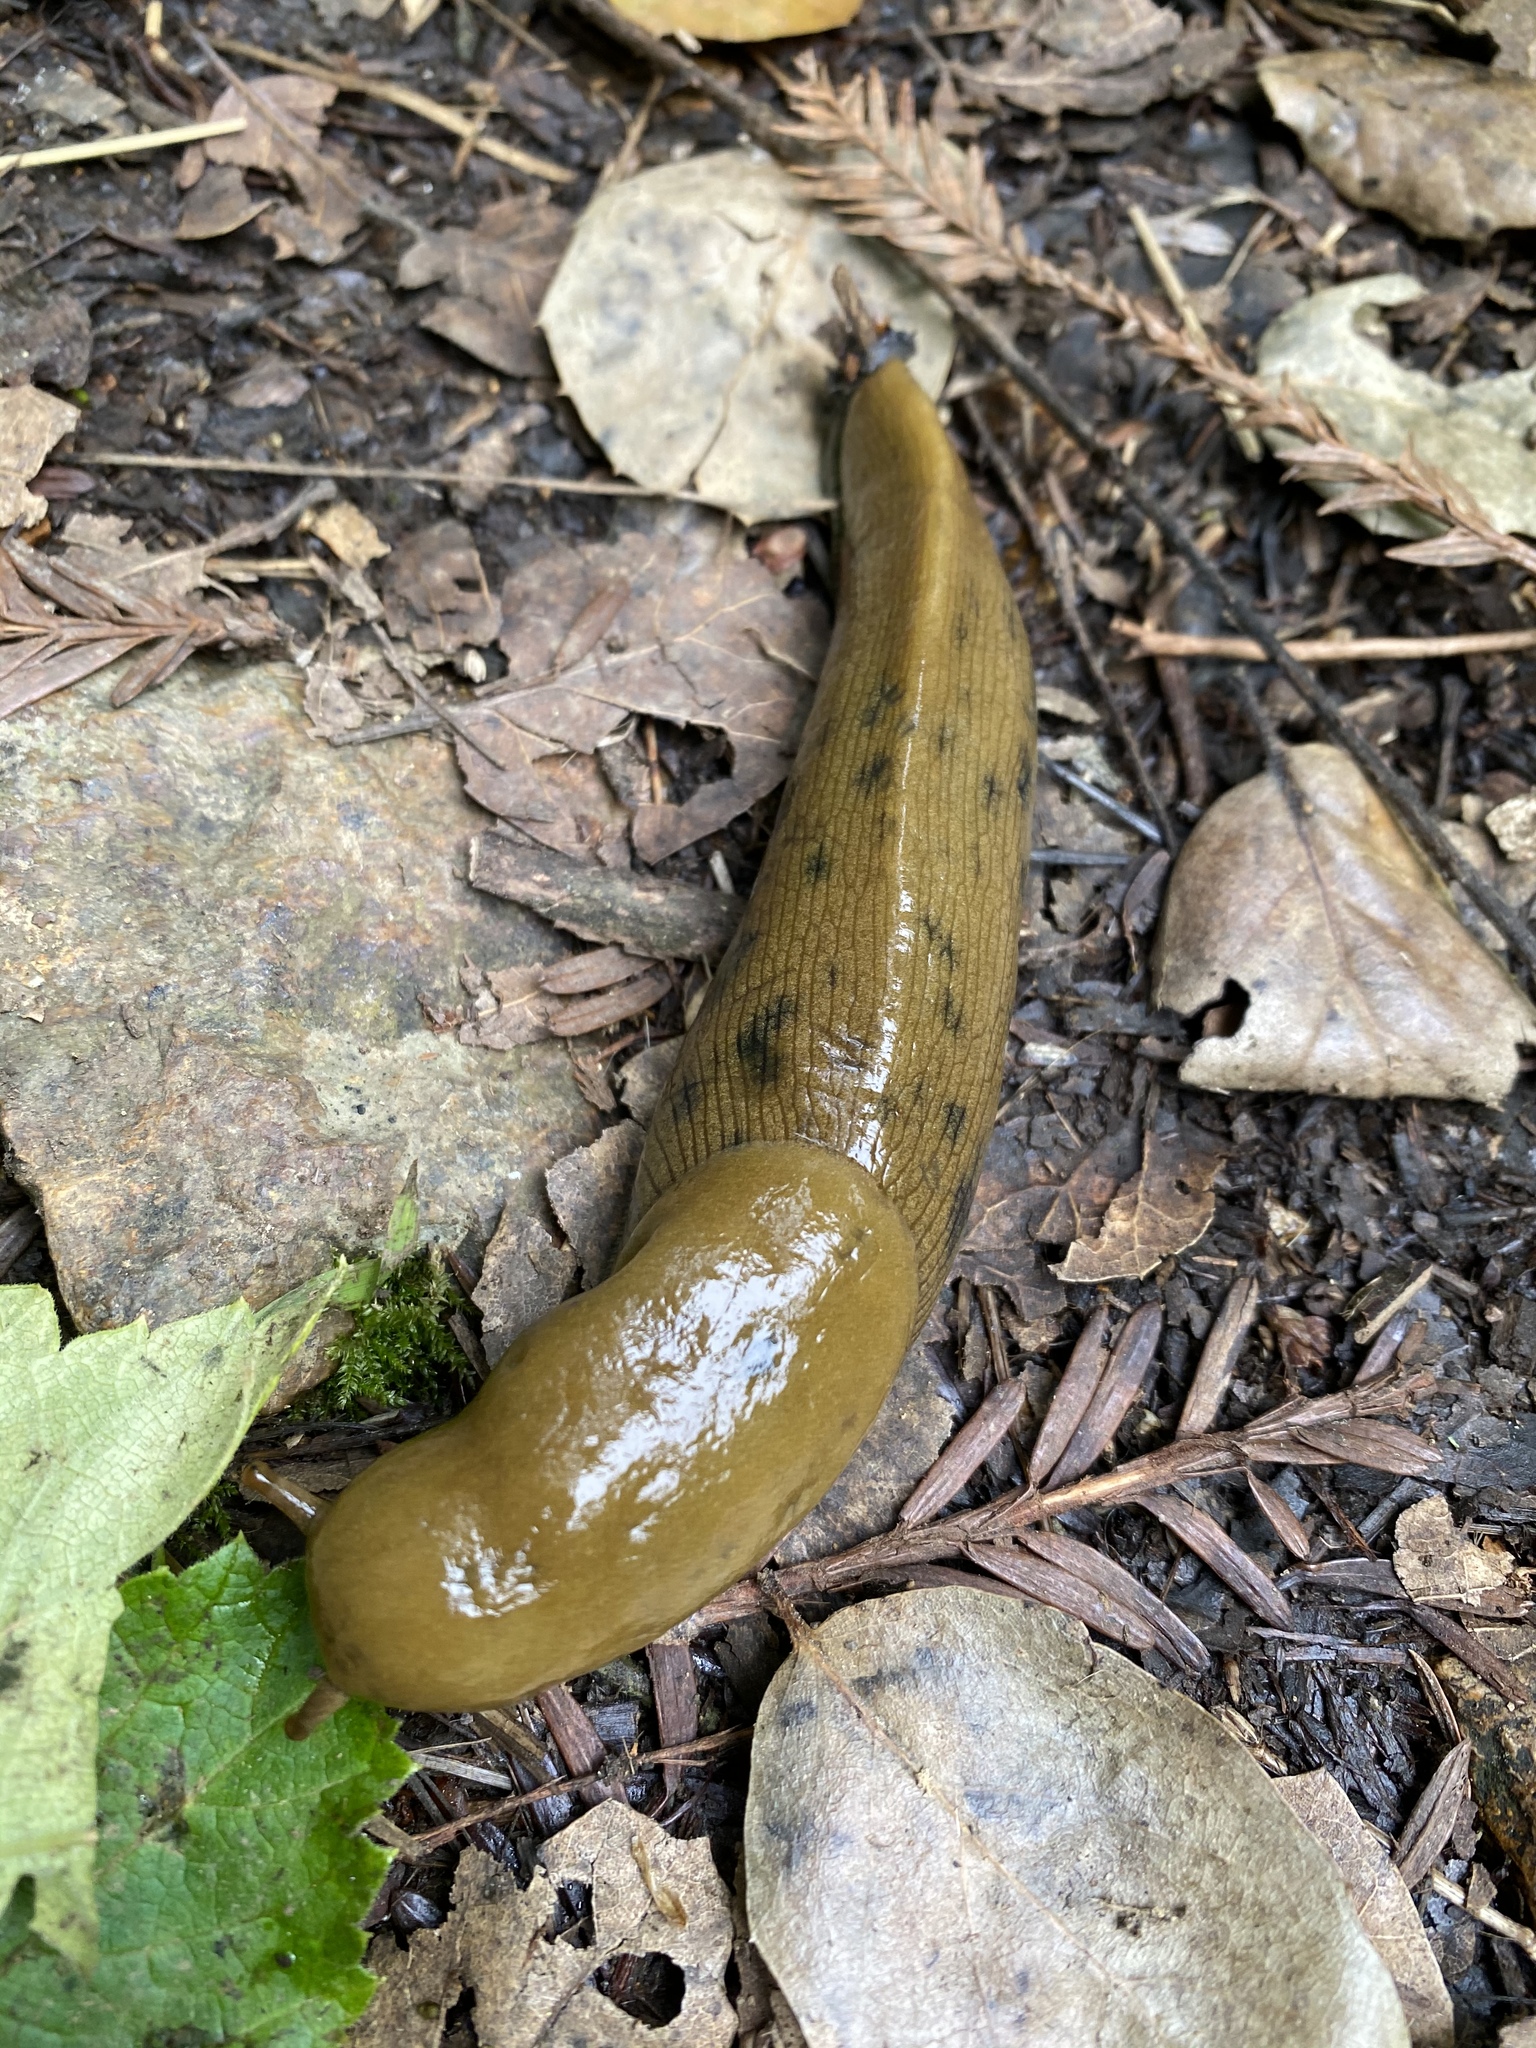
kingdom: Animalia
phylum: Mollusca
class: Gastropoda
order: Stylommatophora
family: Ariolimacidae
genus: Ariolimax
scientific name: Ariolimax buttoni
